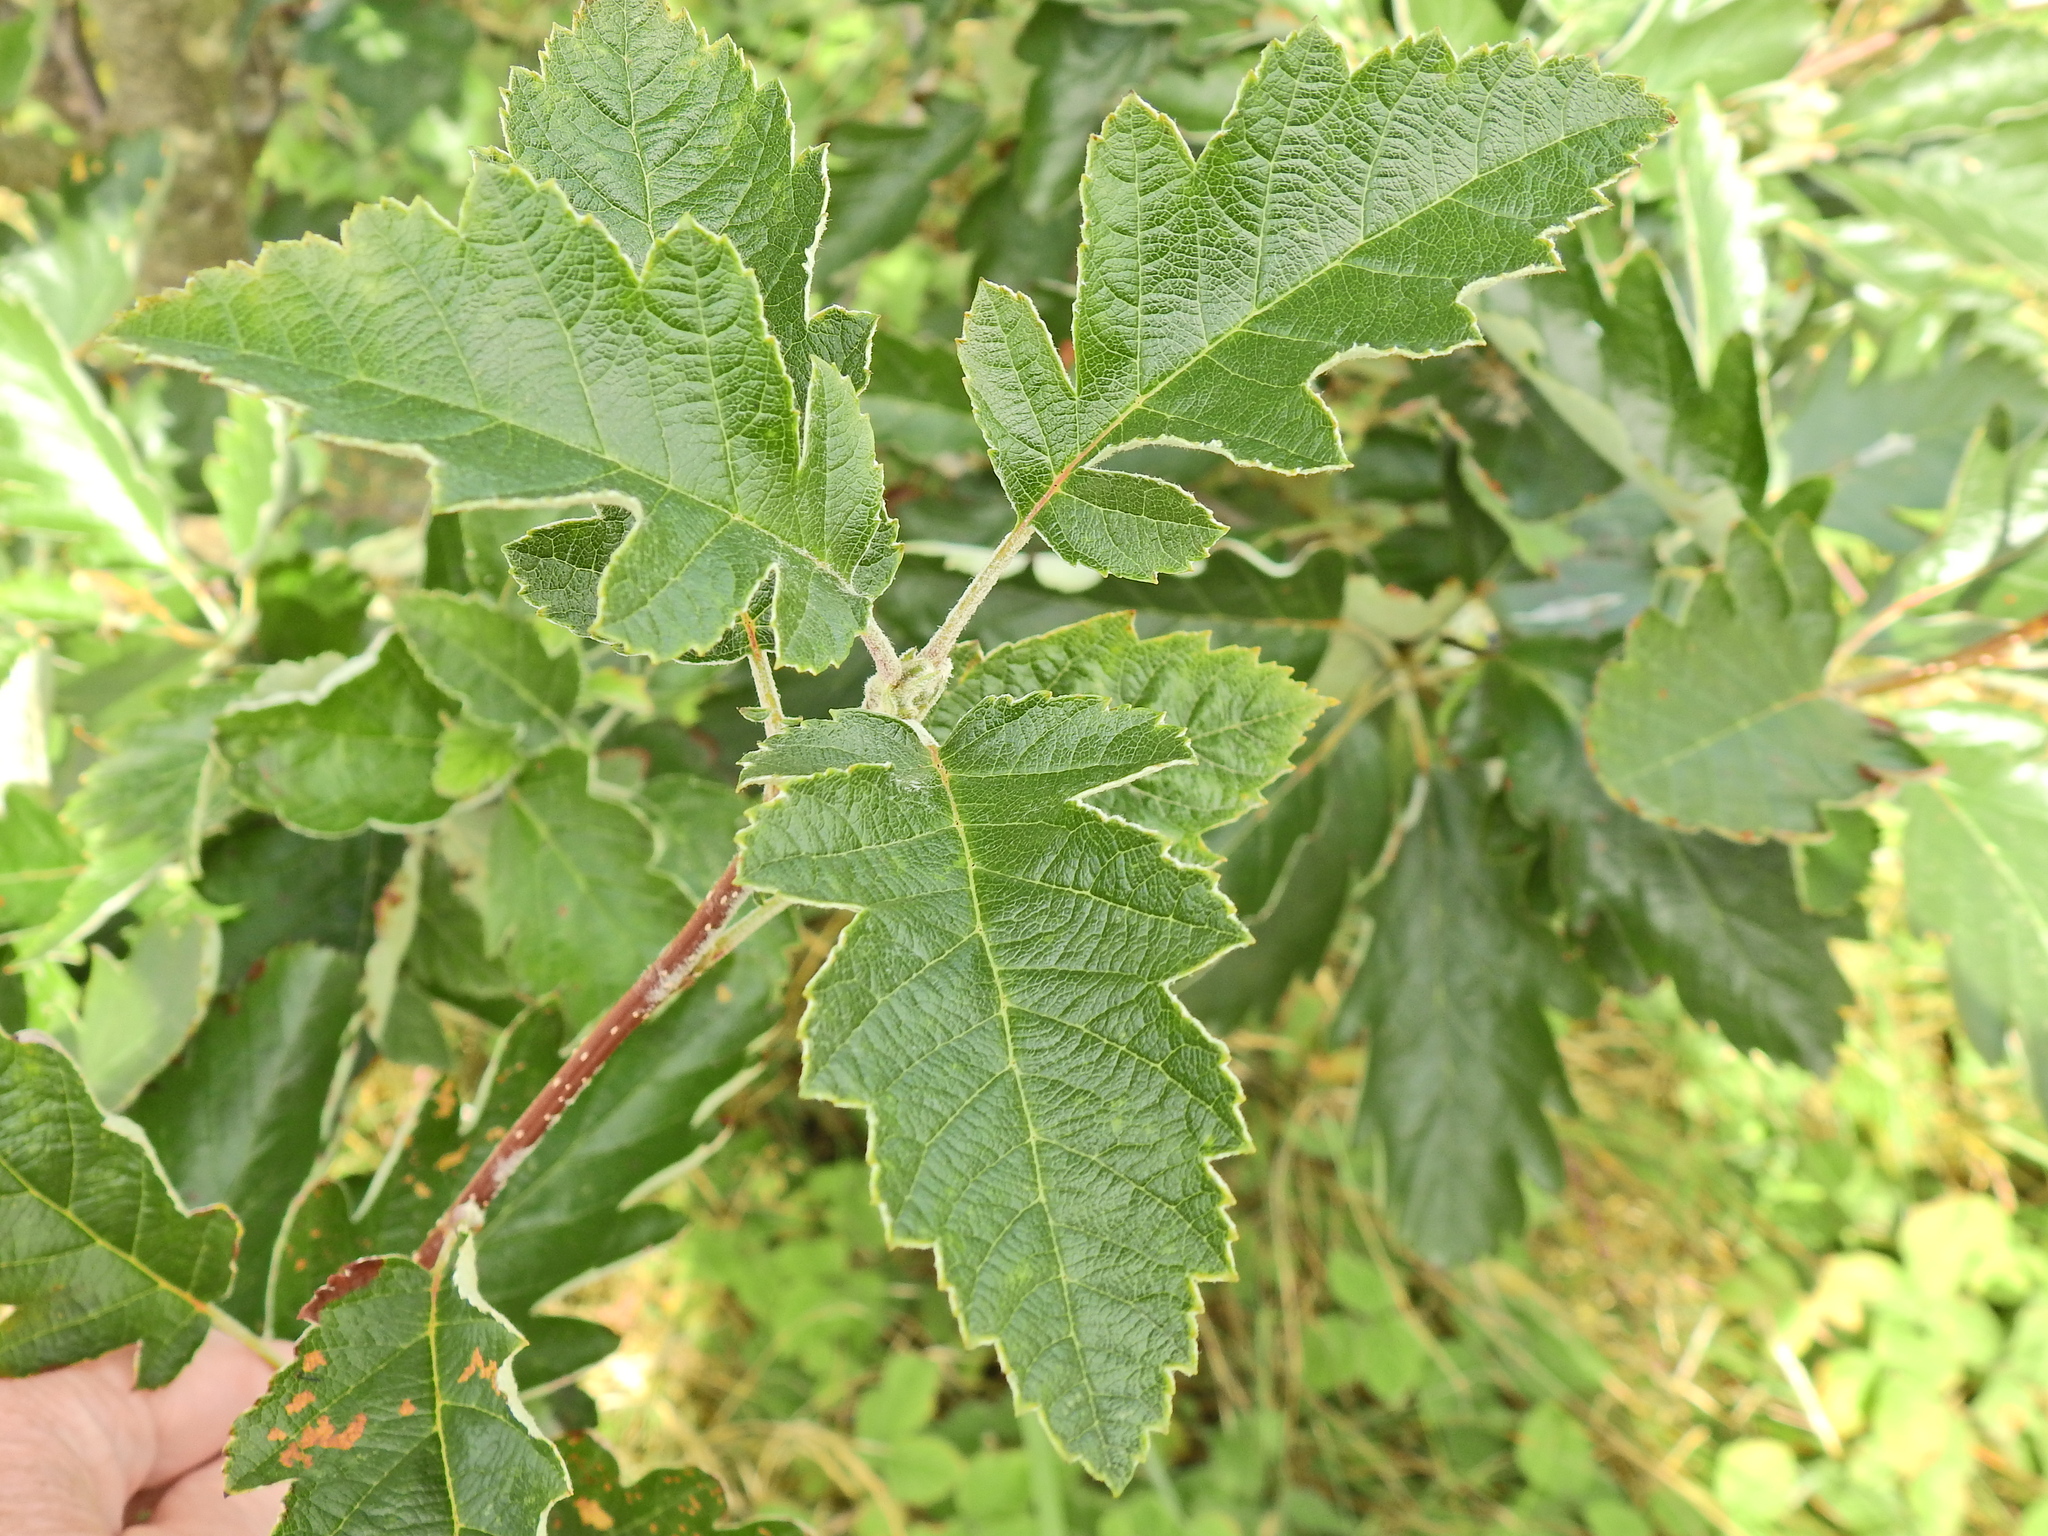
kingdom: Plantae
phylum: Tracheophyta
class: Magnoliopsida
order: Rosales
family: Rosaceae
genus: Scandosorbus
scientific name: Scandosorbus intermedia
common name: Swedish whitebeam
